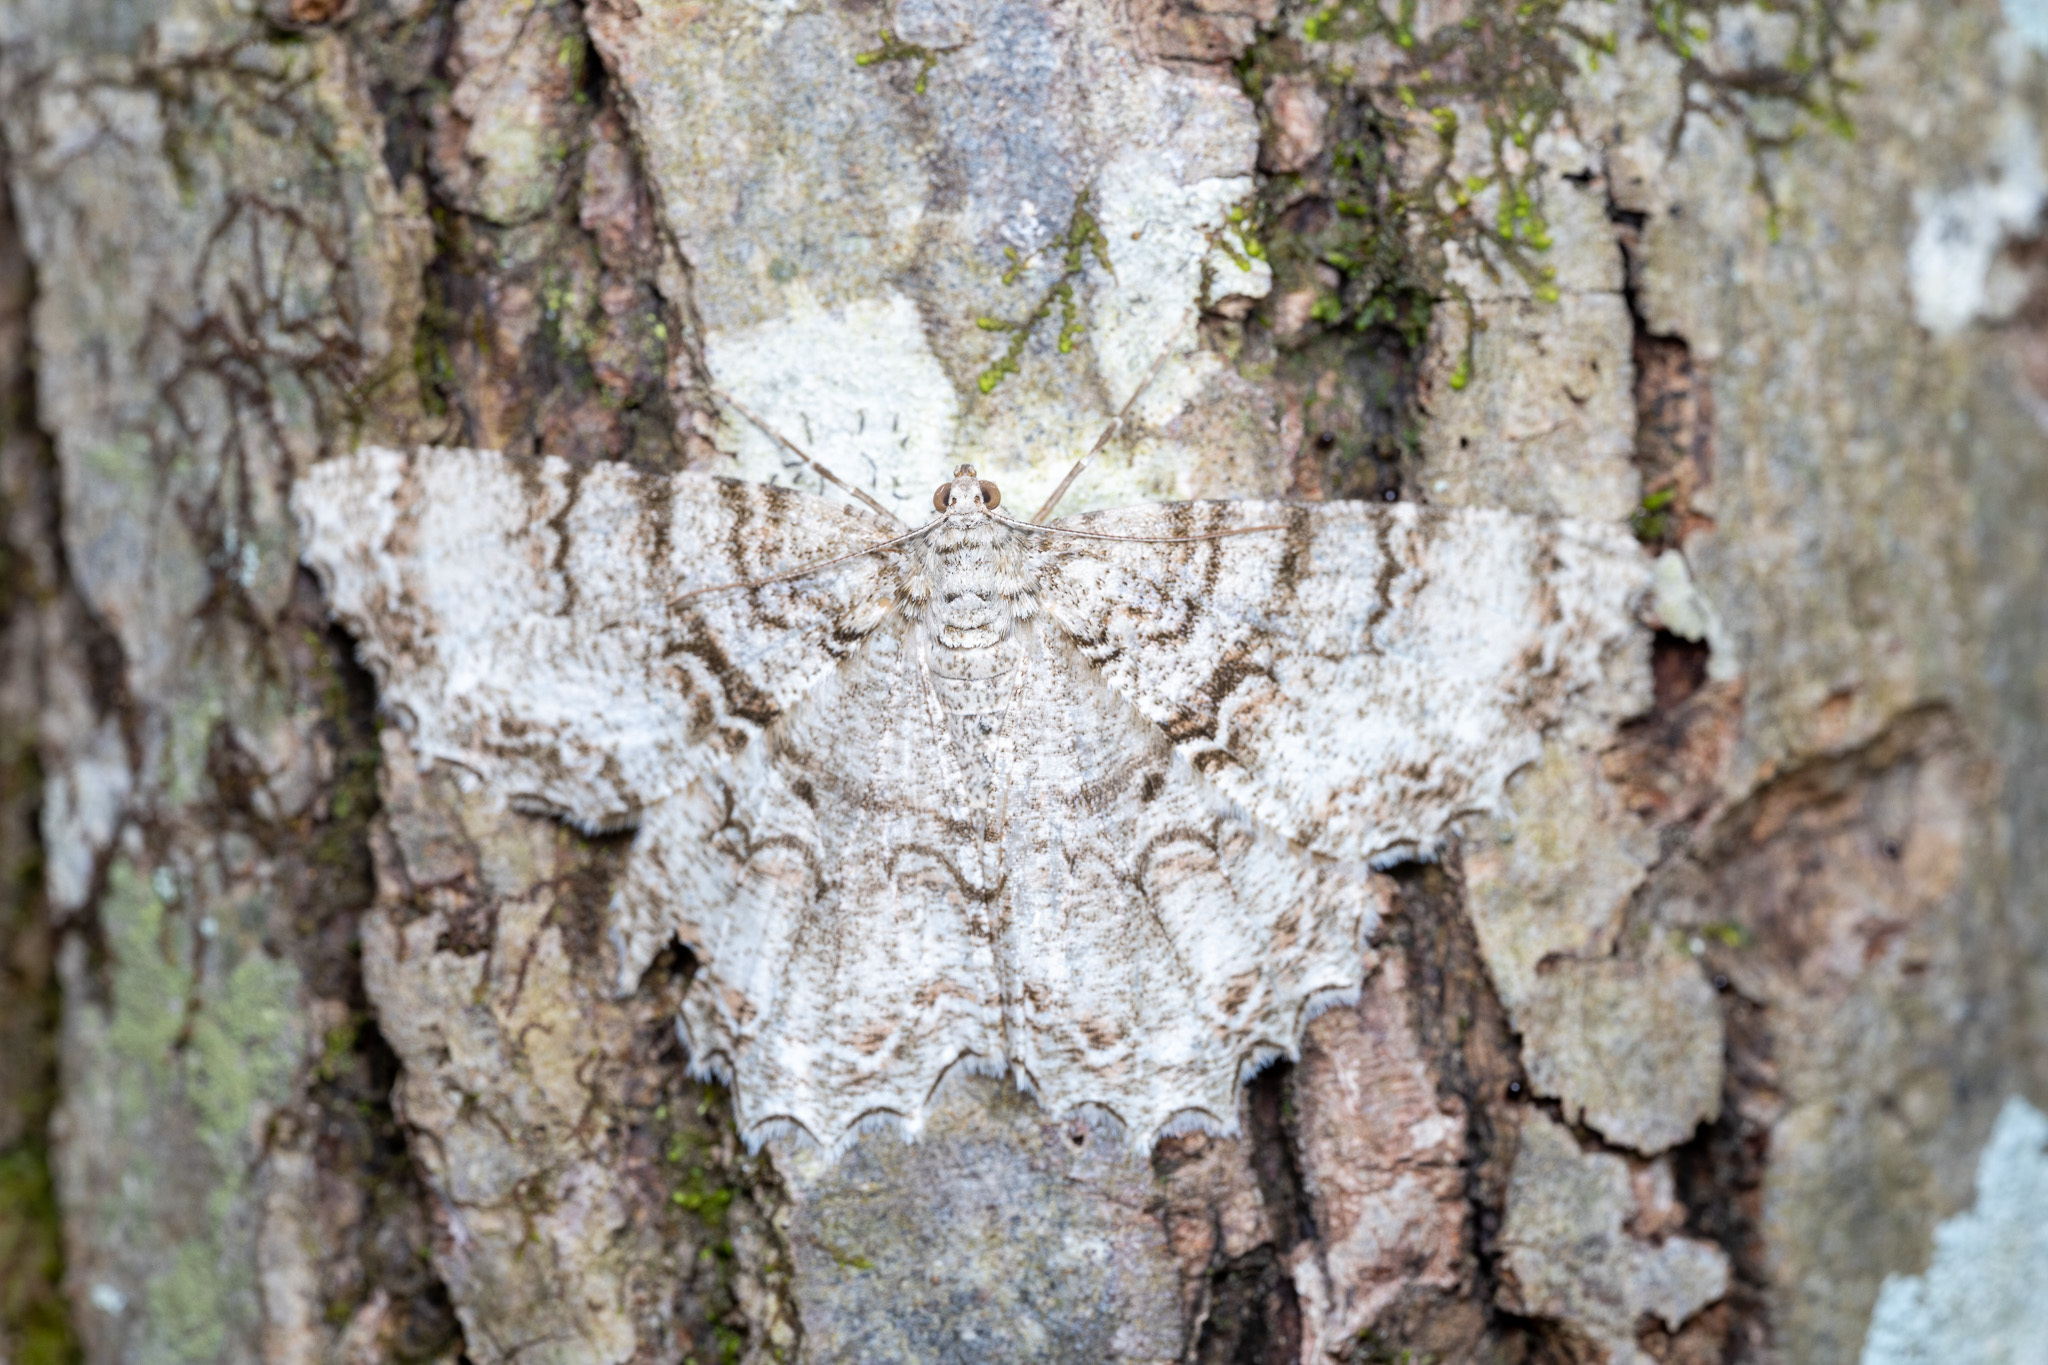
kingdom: Animalia
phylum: Arthropoda
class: Insecta
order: Lepidoptera
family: Geometridae
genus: Epimecis
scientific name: Epimecis hortaria
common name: Tulip-tree beauty
